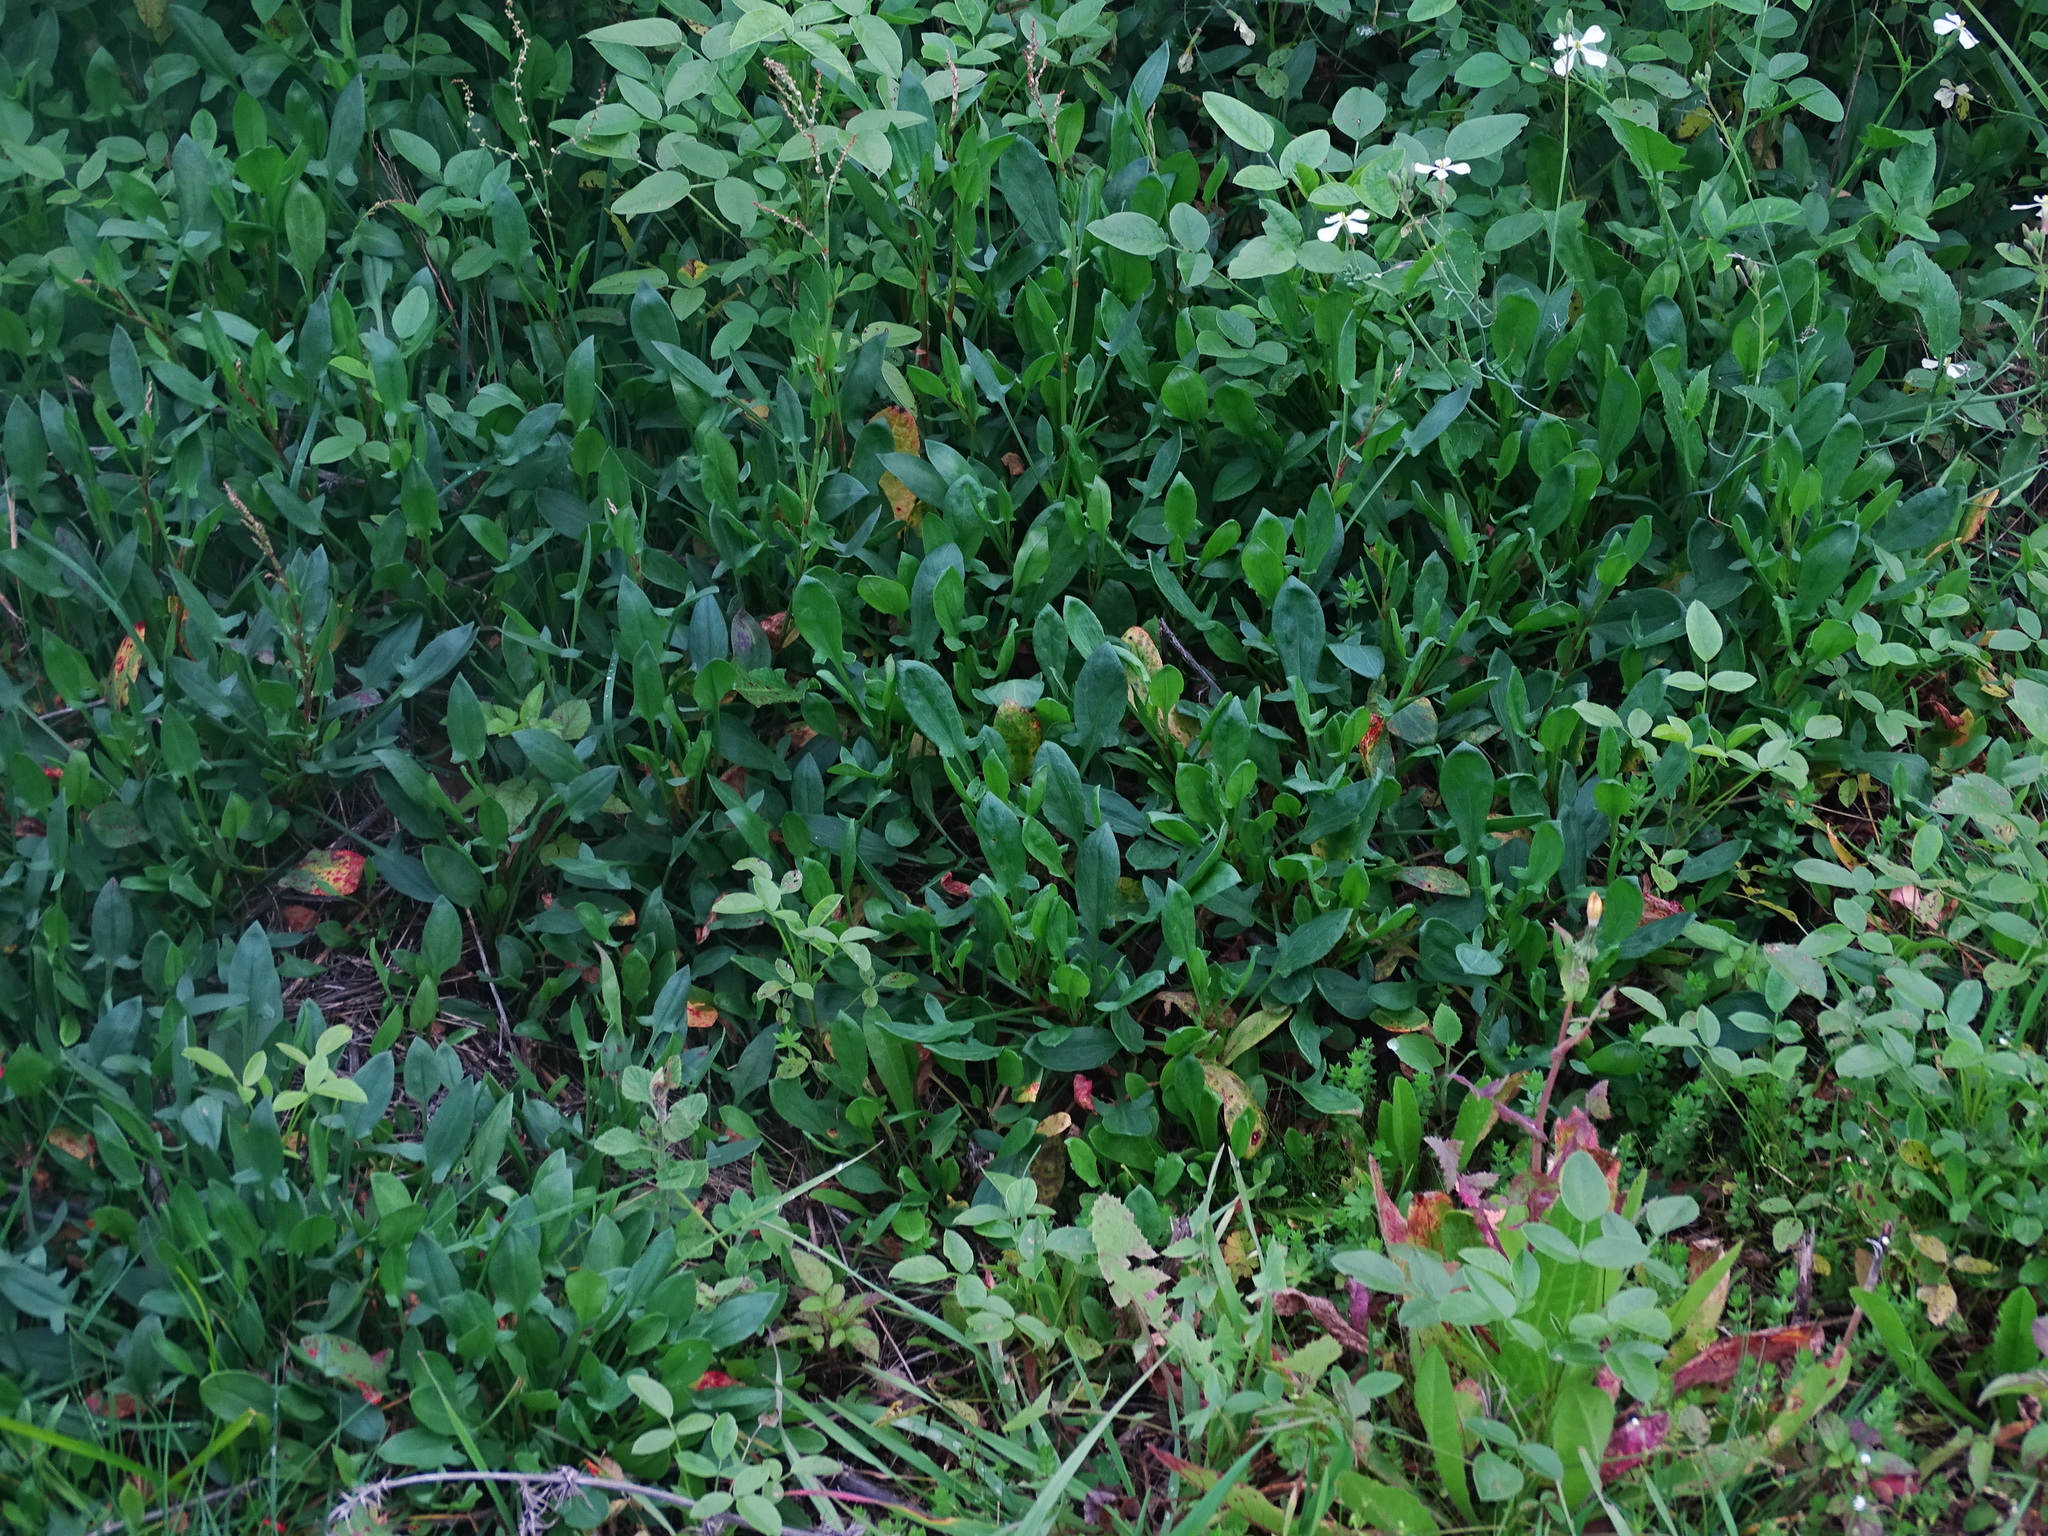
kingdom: Plantae
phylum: Tracheophyta
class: Magnoliopsida
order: Caryophyllales
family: Polygonaceae
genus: Rumex
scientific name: Rumex acetosella
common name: Common sheep sorrel
